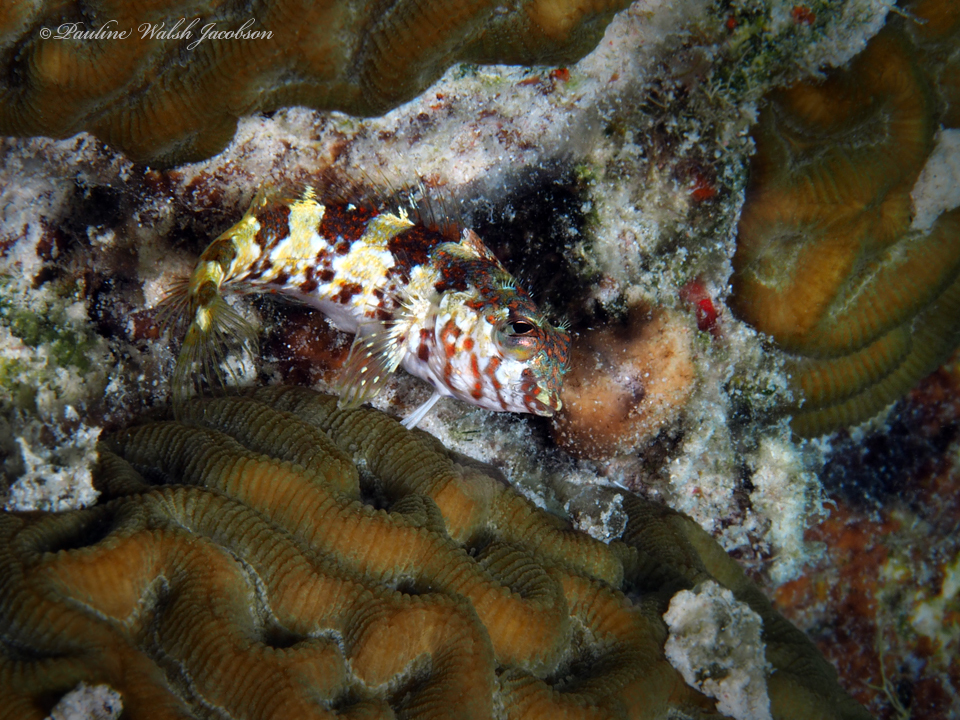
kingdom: Animalia
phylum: Chordata
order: Perciformes
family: Labrisomidae
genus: Malacoctenus
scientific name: Malacoctenus triangulatus
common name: Saddled blenny
